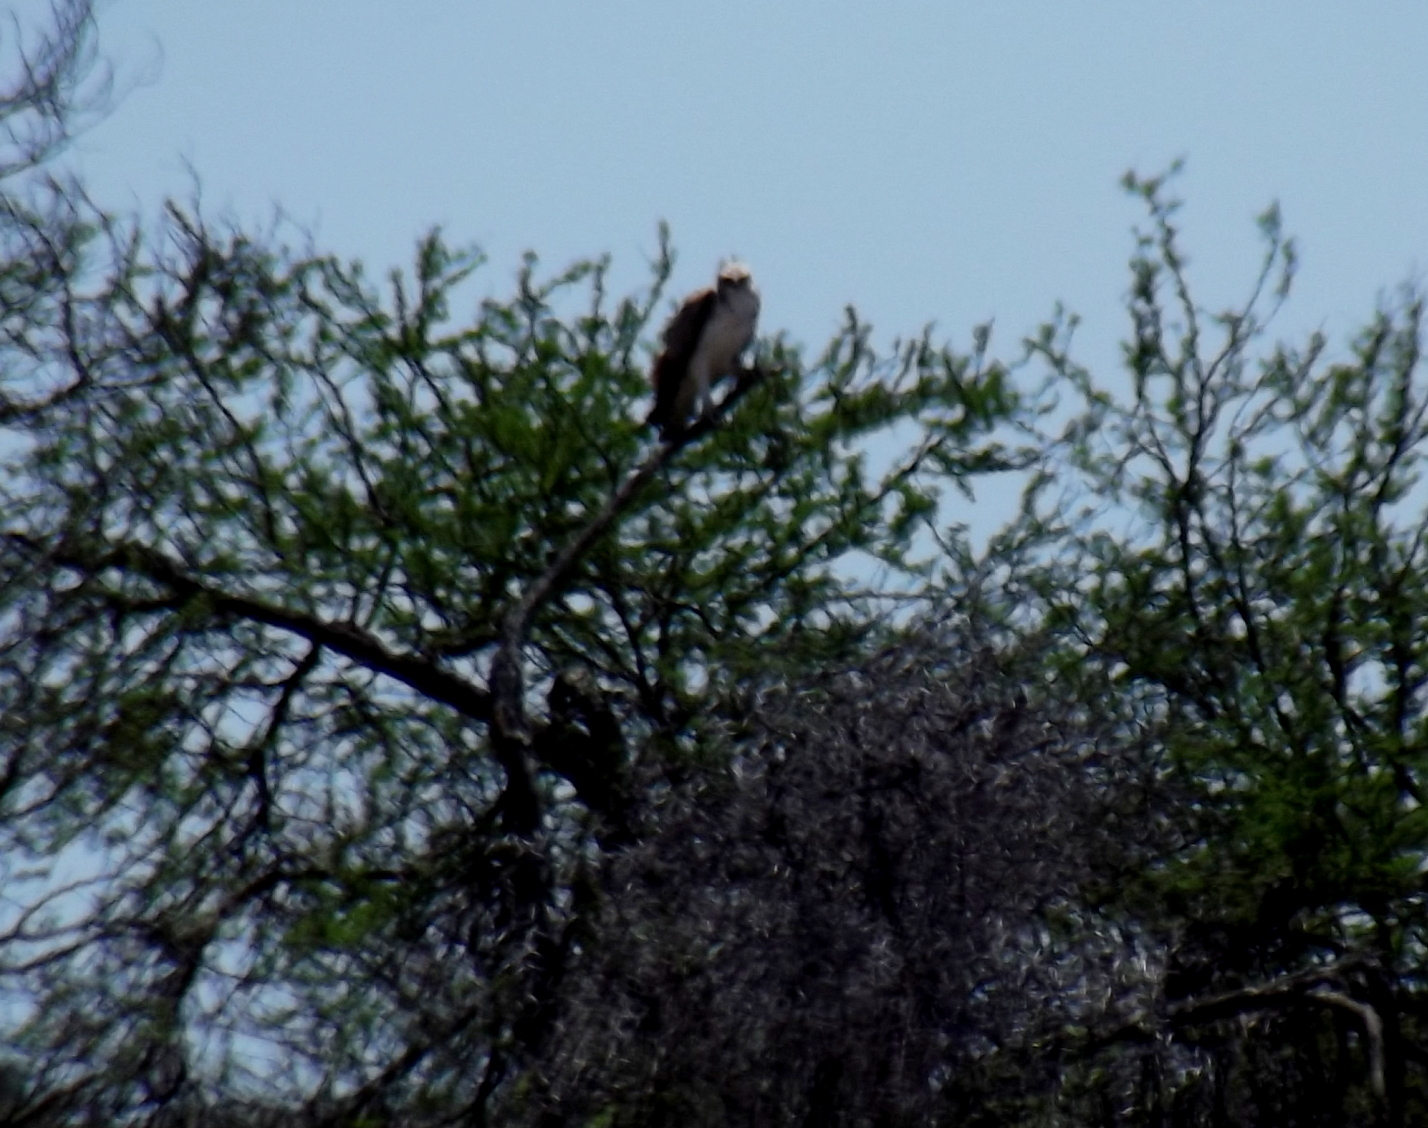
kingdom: Animalia
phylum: Chordata
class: Aves
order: Accipitriformes
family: Accipitridae
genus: Polemaetus
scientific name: Polemaetus bellicosus
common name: Martial eagle
